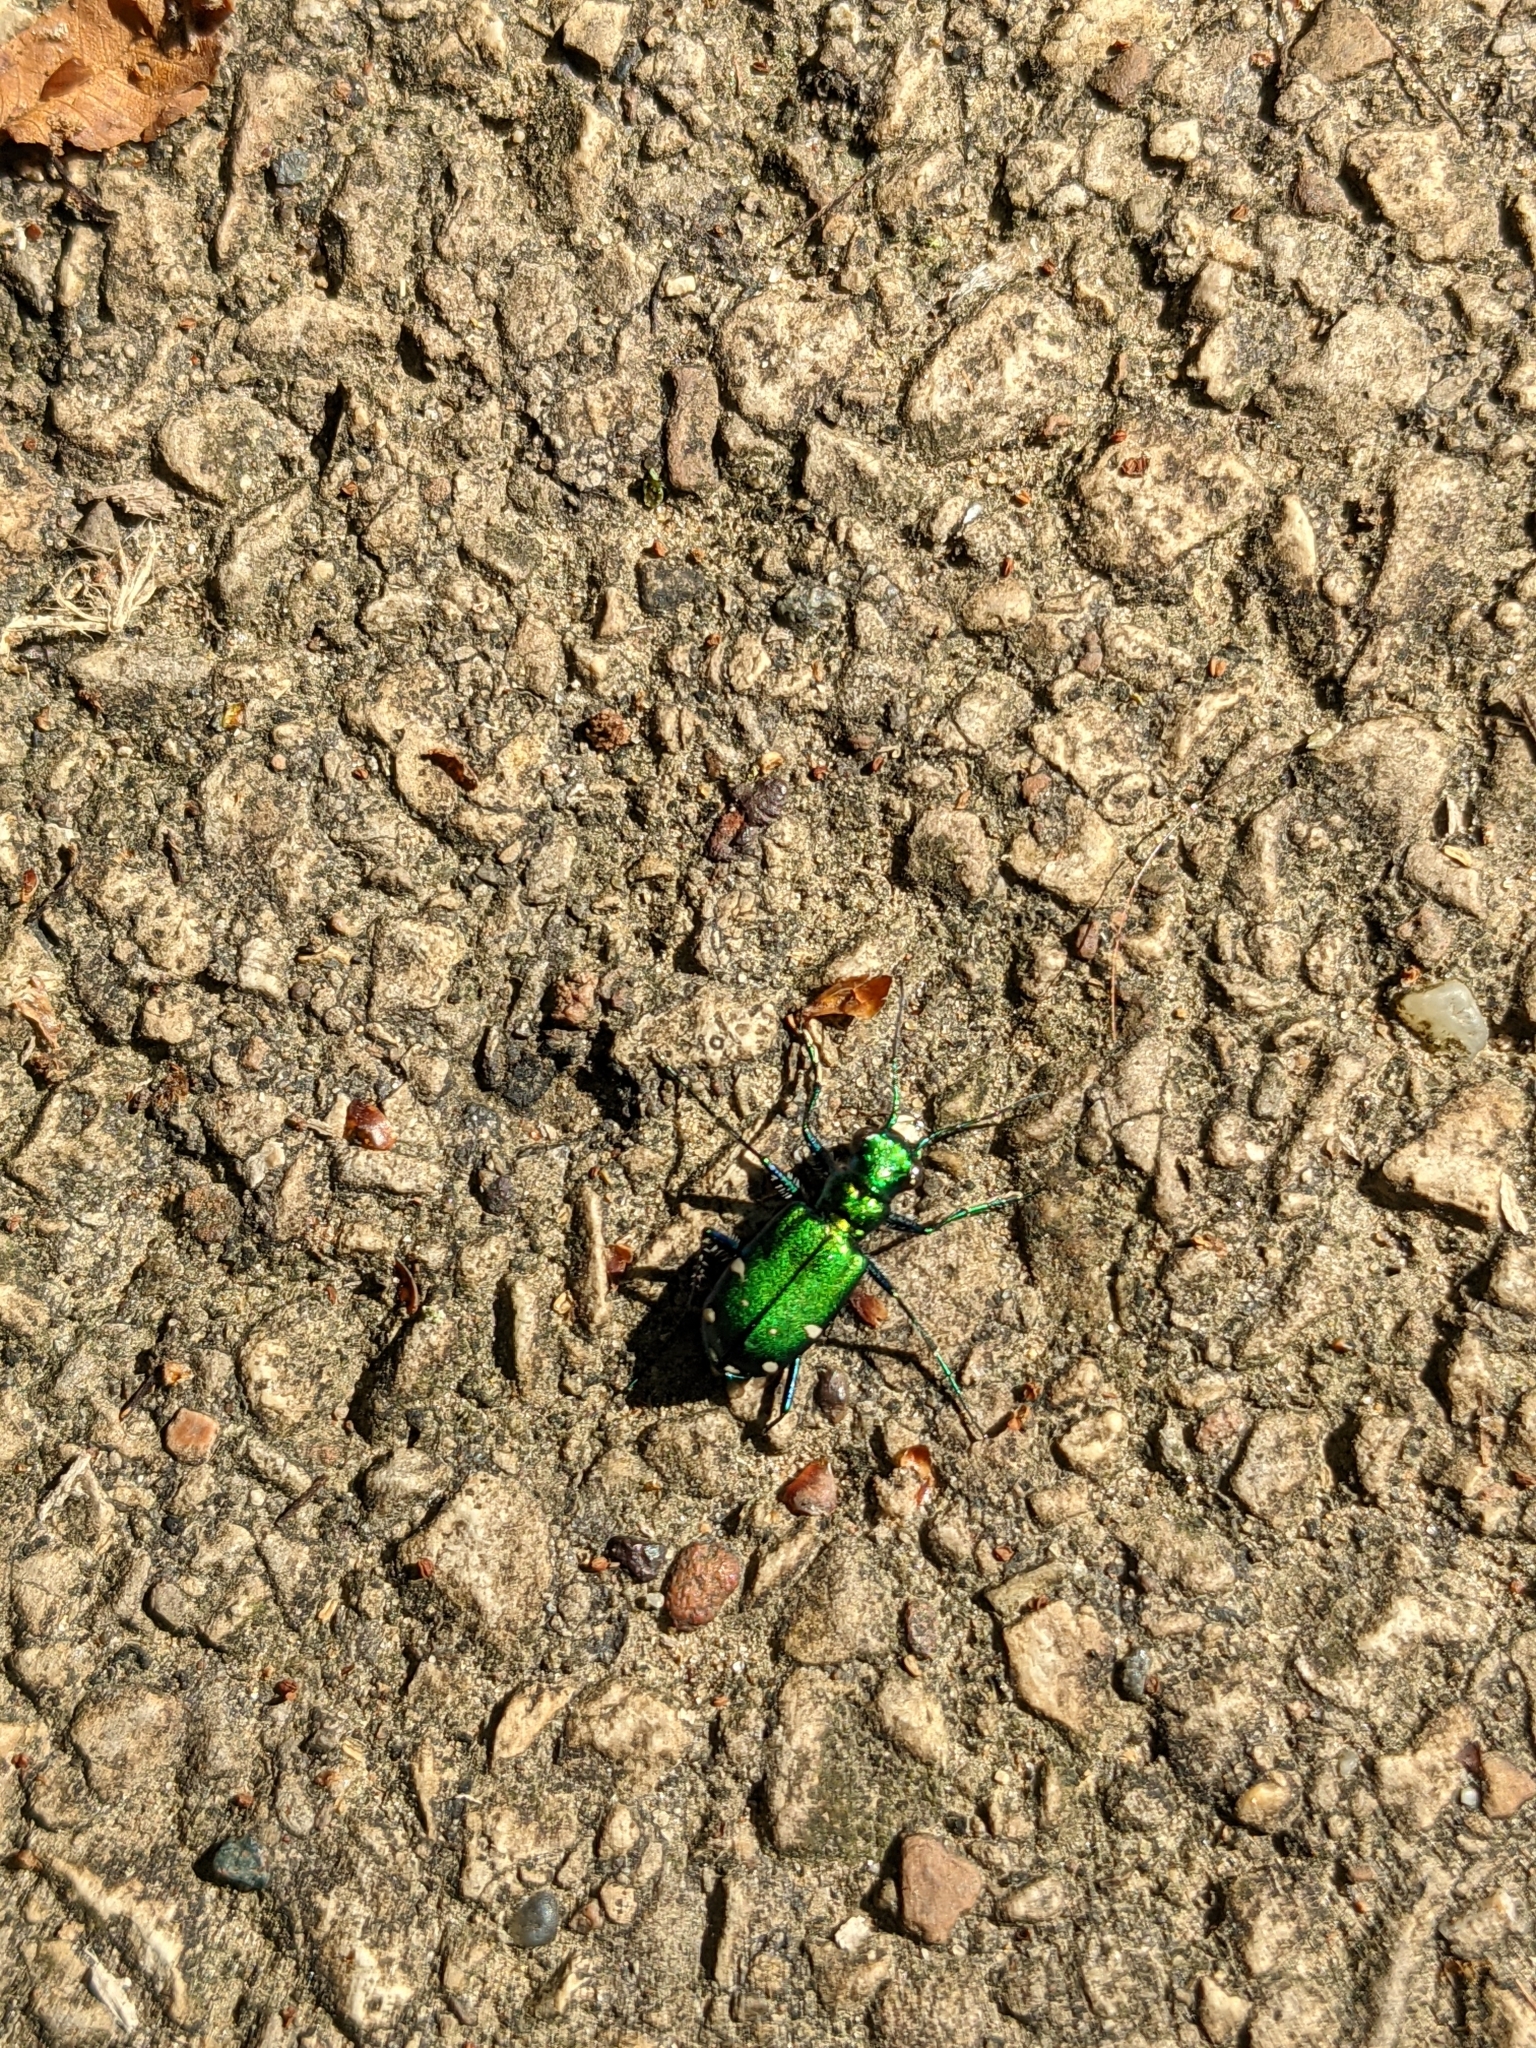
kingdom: Animalia
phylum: Arthropoda
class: Insecta
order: Coleoptera
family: Carabidae
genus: Cicindela
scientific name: Cicindela sexguttata
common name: Six-spotted tiger beetle
